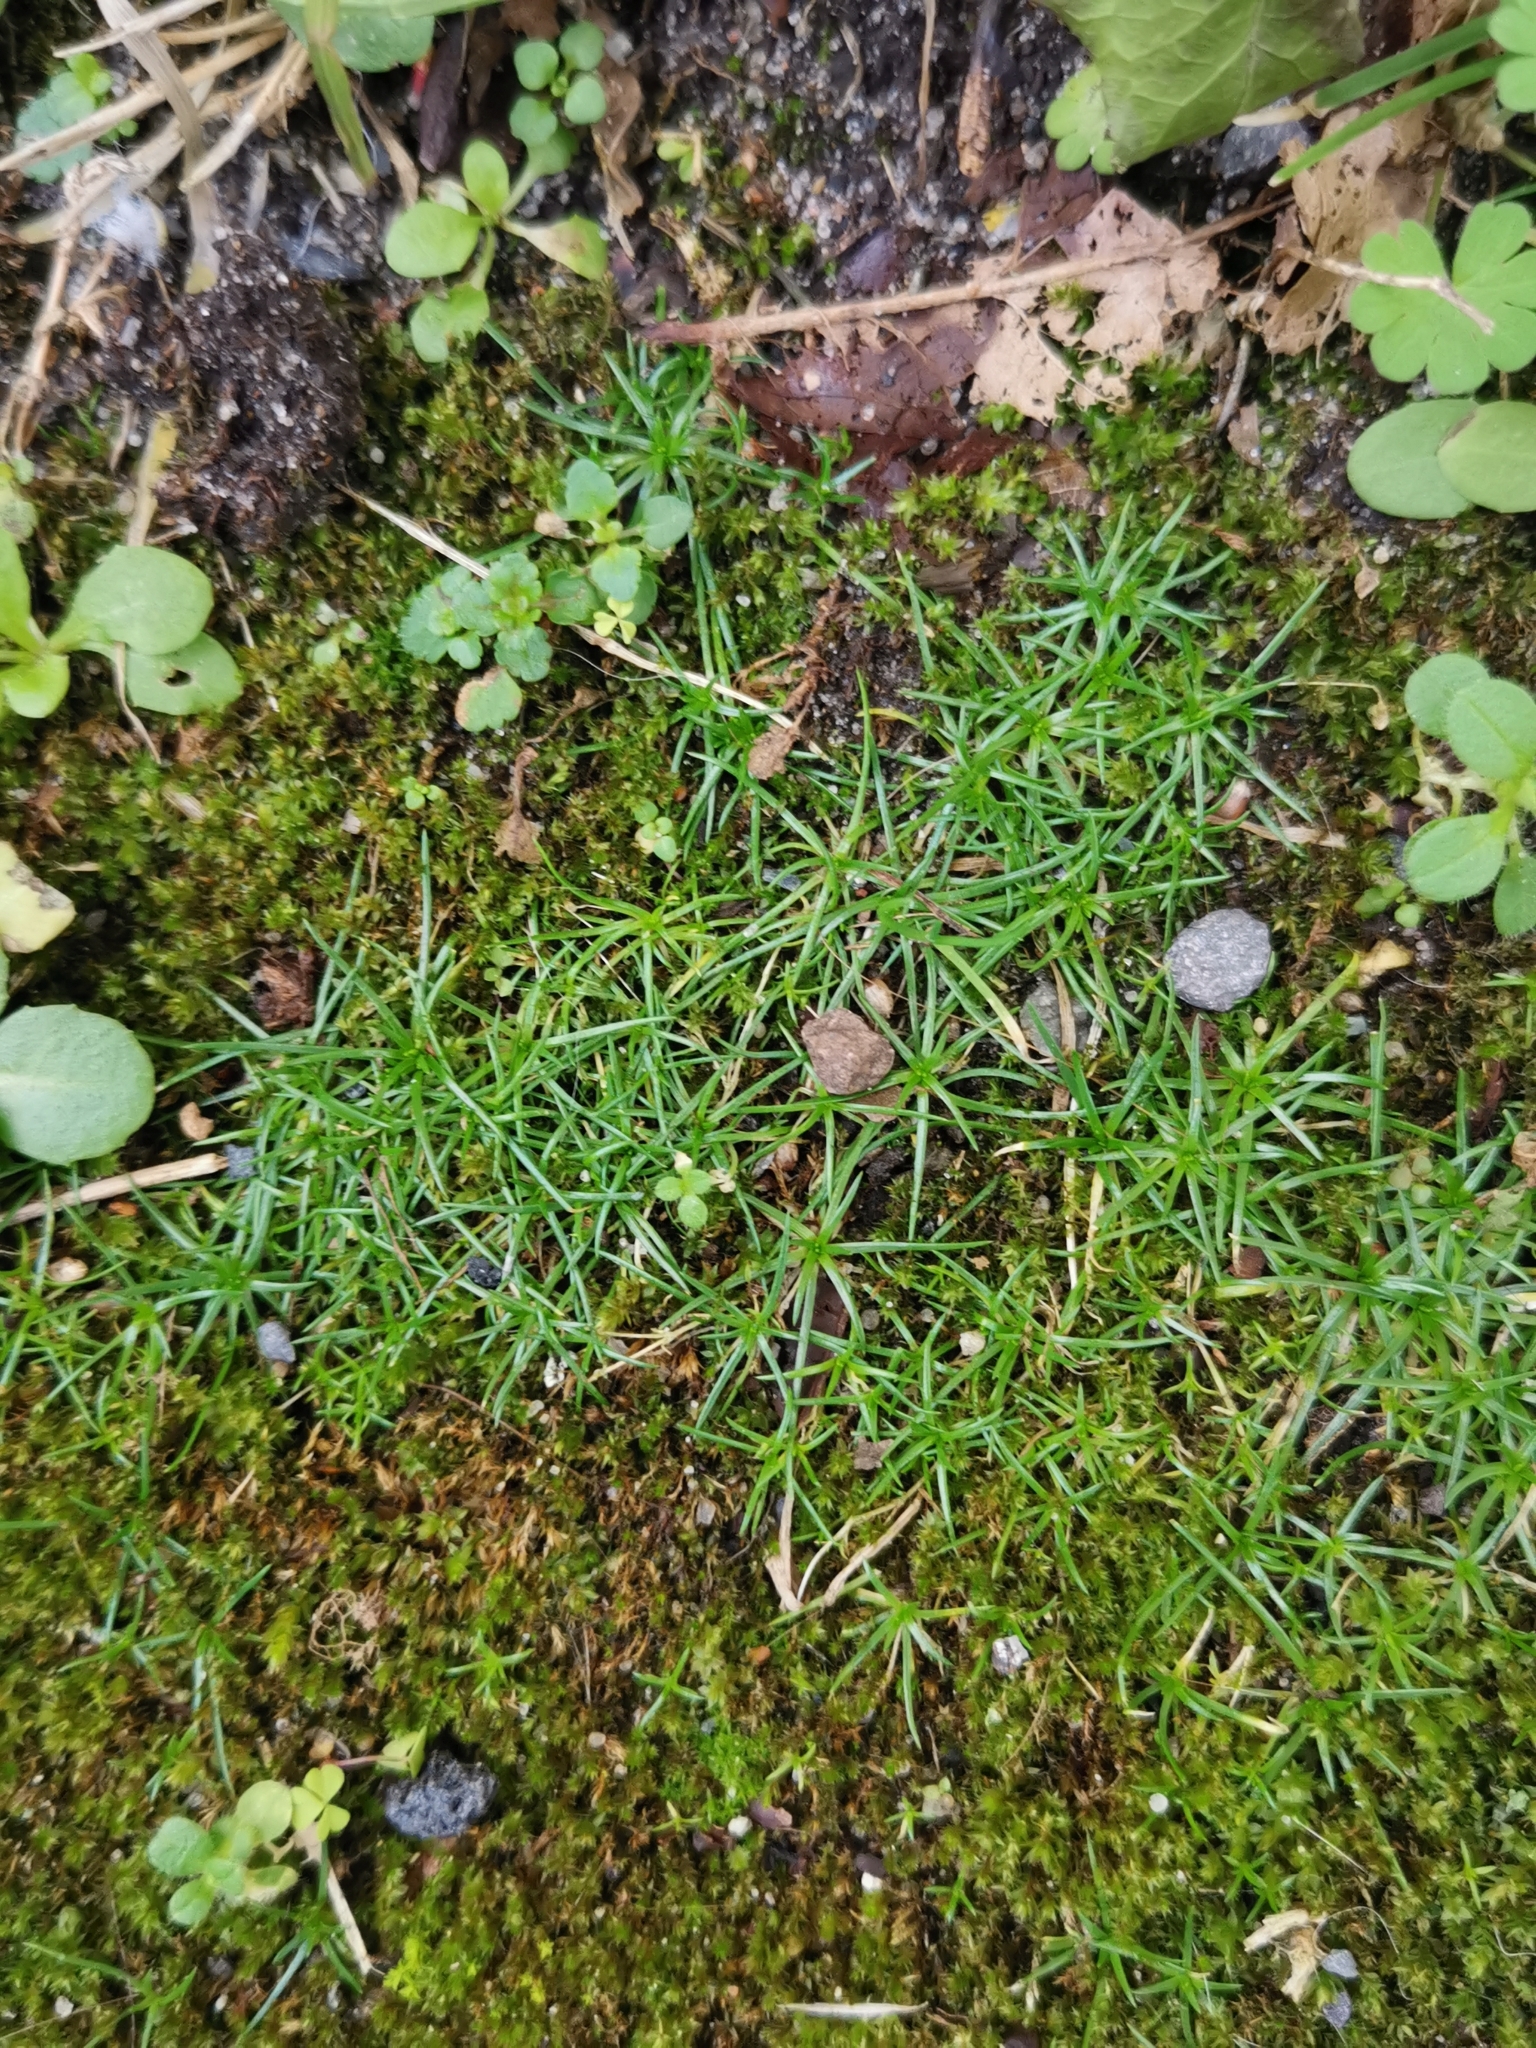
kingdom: Plantae
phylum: Tracheophyta
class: Magnoliopsida
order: Caryophyllales
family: Caryophyllaceae
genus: Sagina
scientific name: Sagina procumbens
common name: Procumbent pearlwort
